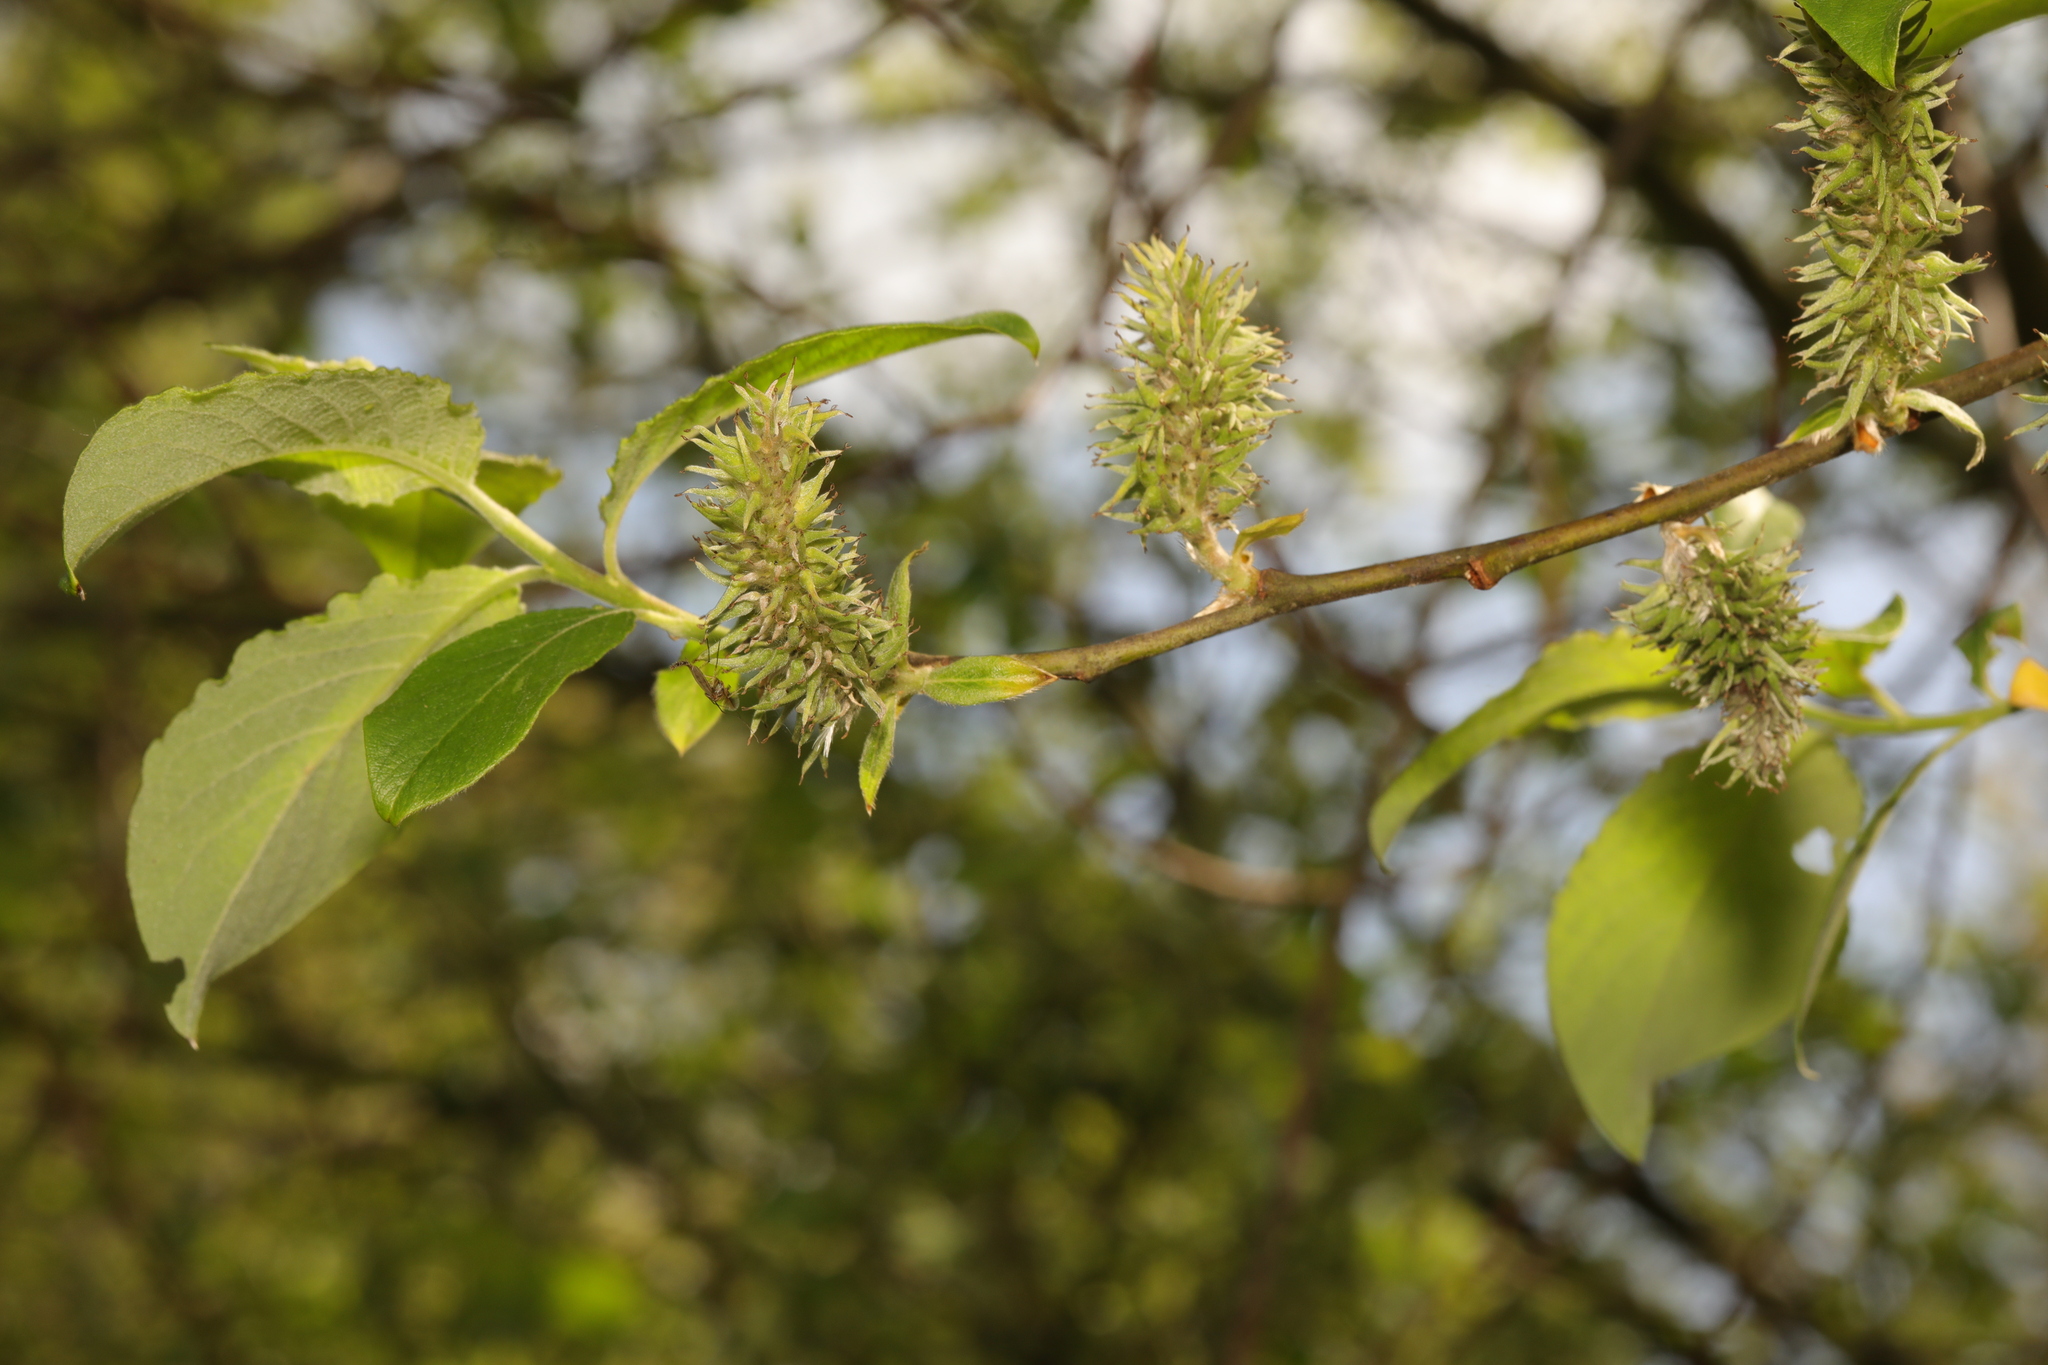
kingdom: Plantae
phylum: Tracheophyta
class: Magnoliopsida
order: Malpighiales
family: Salicaceae
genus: Salix
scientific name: Salix caprea
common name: Goat willow
